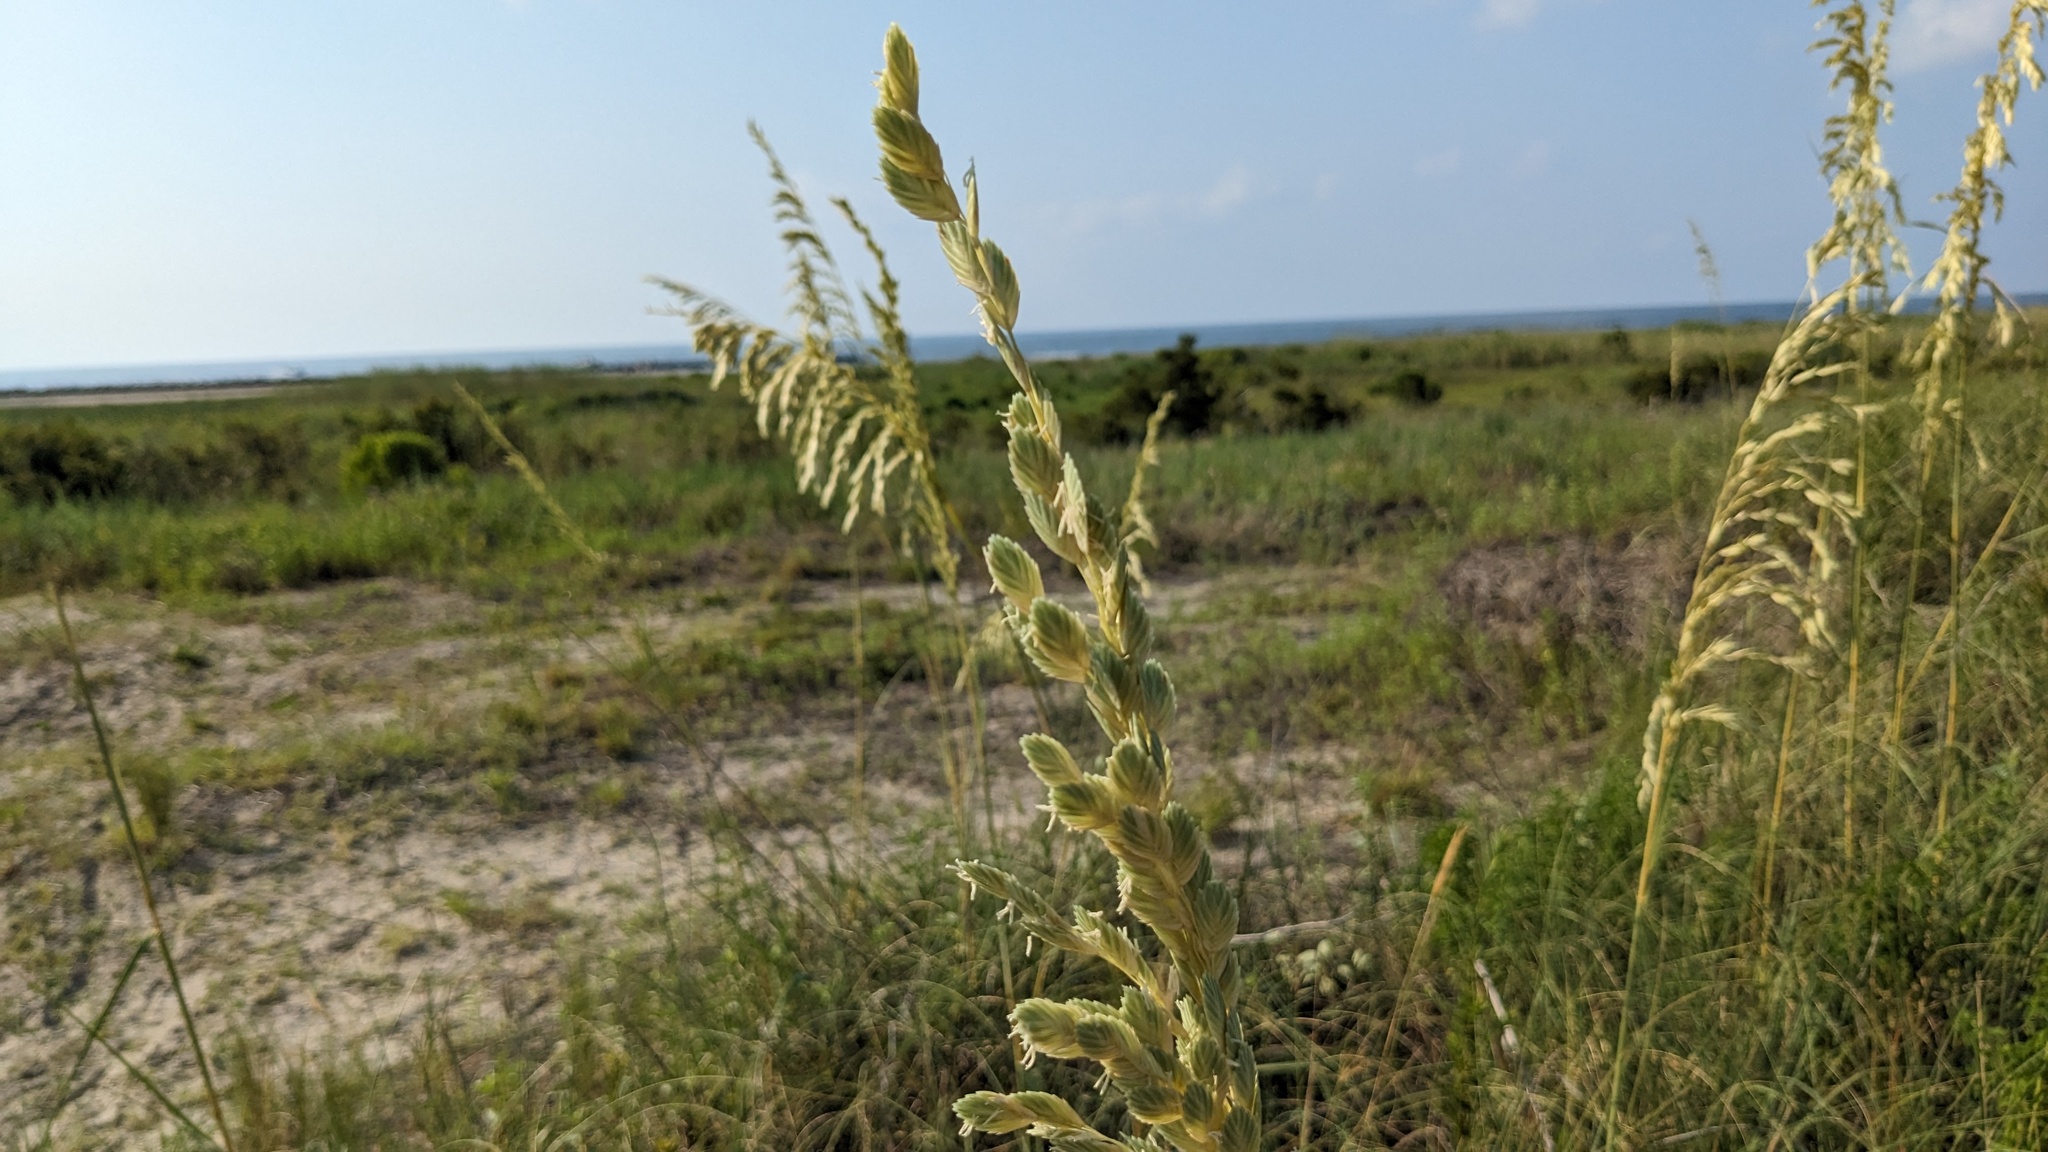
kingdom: Plantae
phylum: Tracheophyta
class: Liliopsida
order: Poales
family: Poaceae
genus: Uniola
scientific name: Uniola paniculata
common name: Seaside-oats
